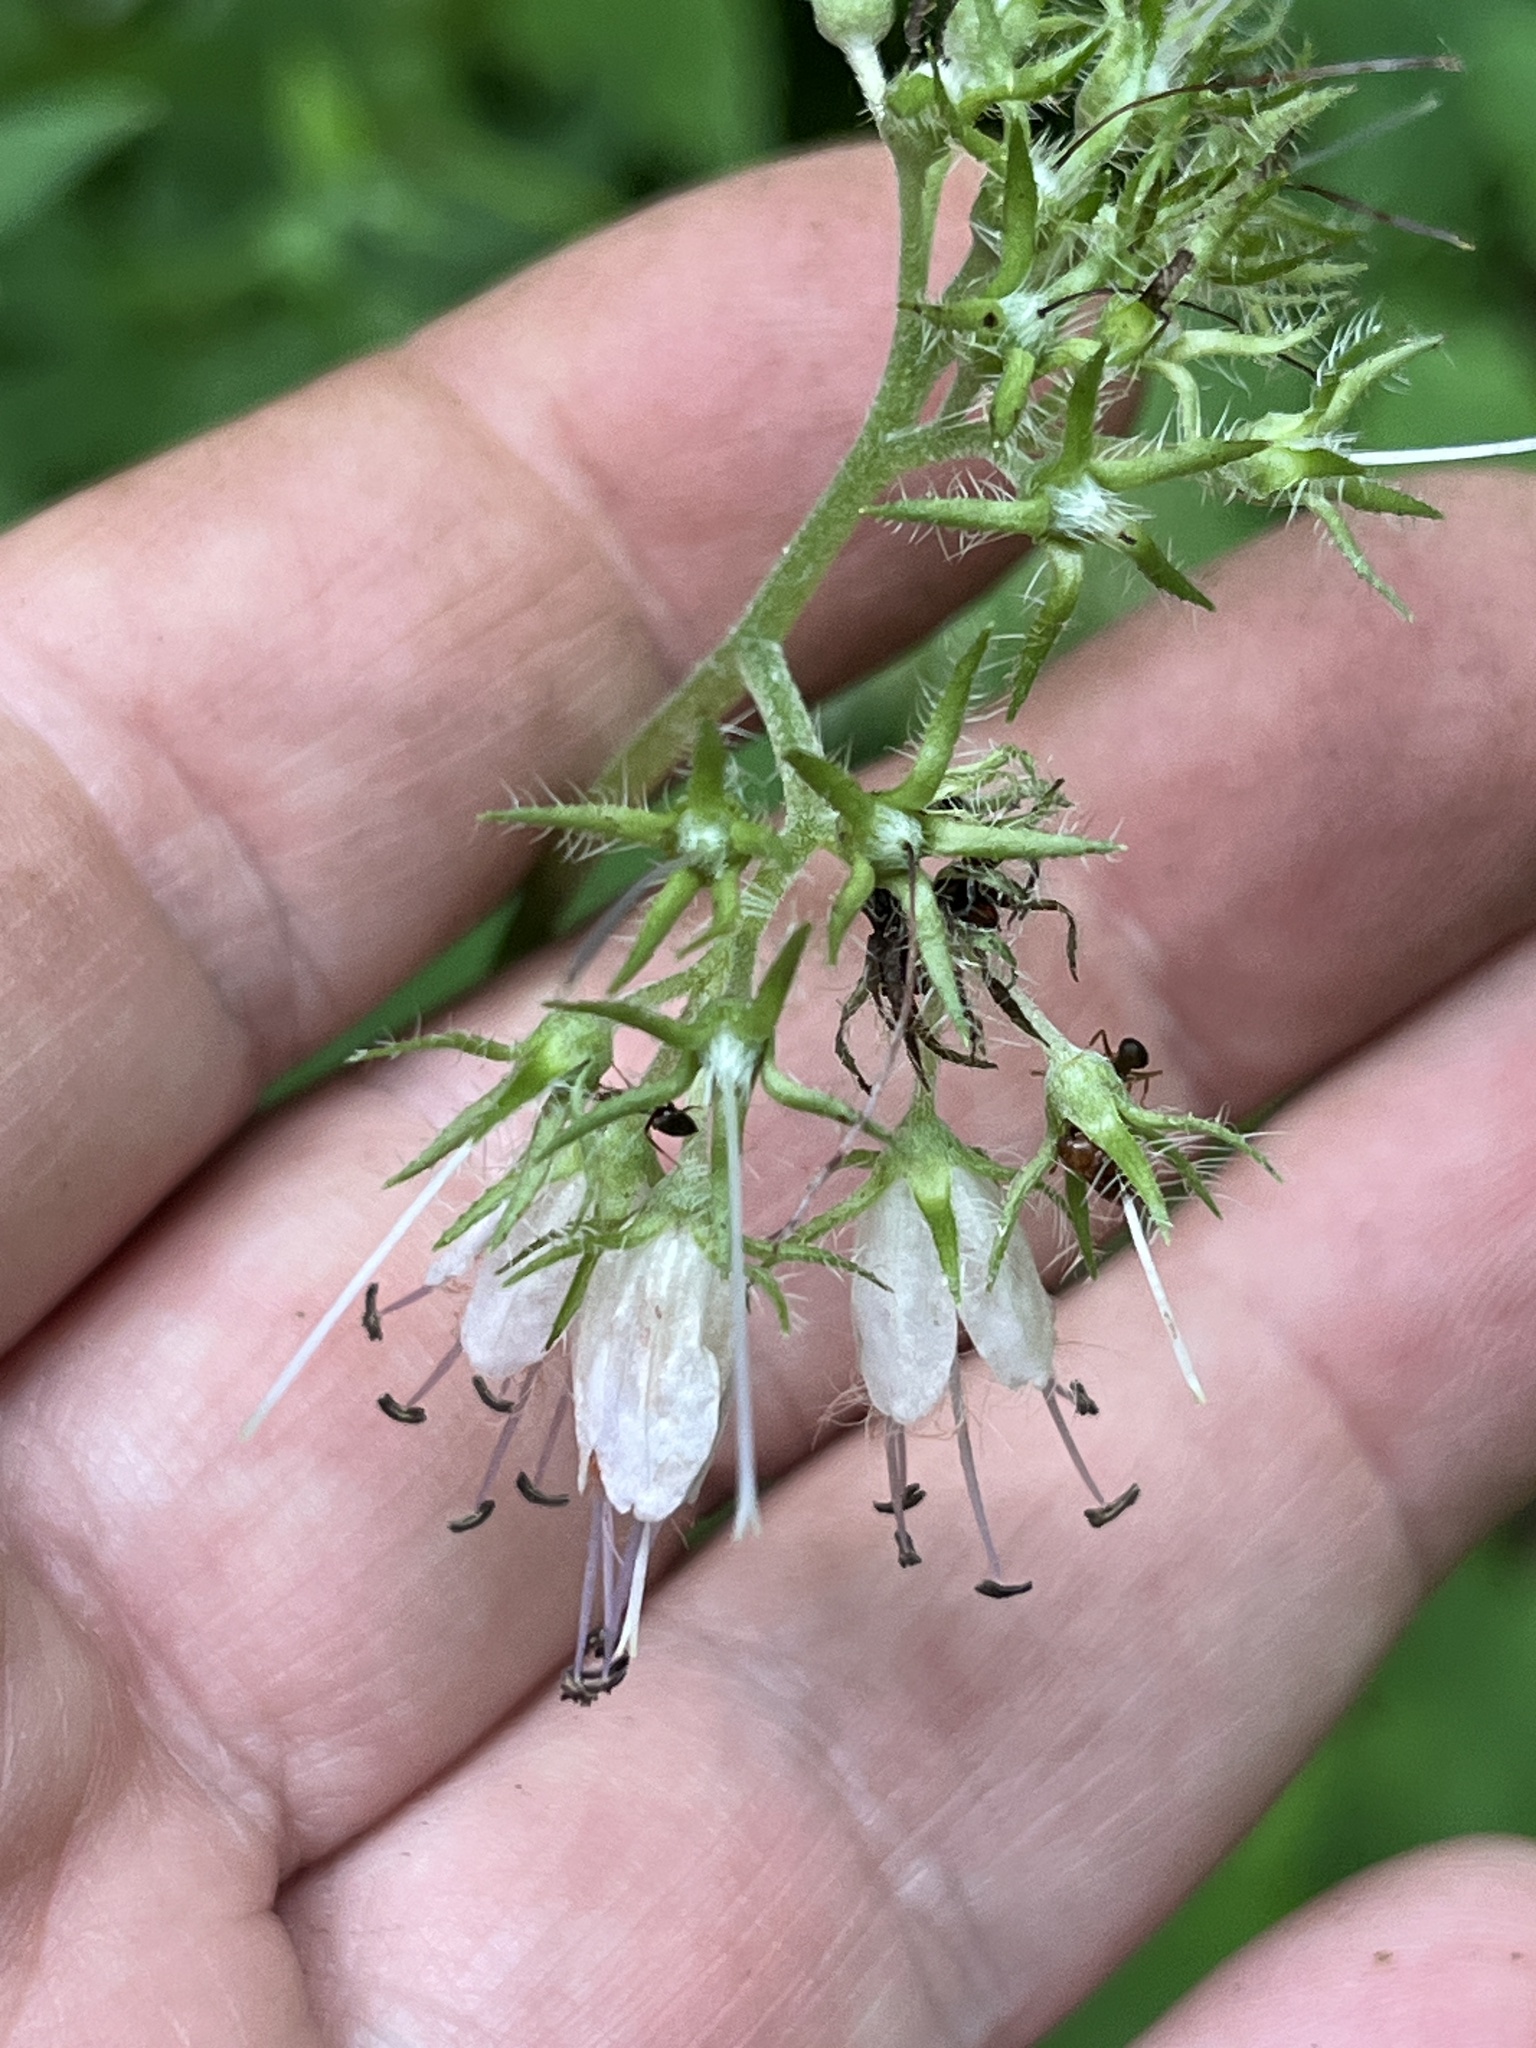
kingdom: Plantae
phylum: Tracheophyta
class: Magnoliopsida
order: Boraginales
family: Hydrophyllaceae
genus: Hydrophyllum
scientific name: Hydrophyllum virginianum
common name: Virginia waterleaf
